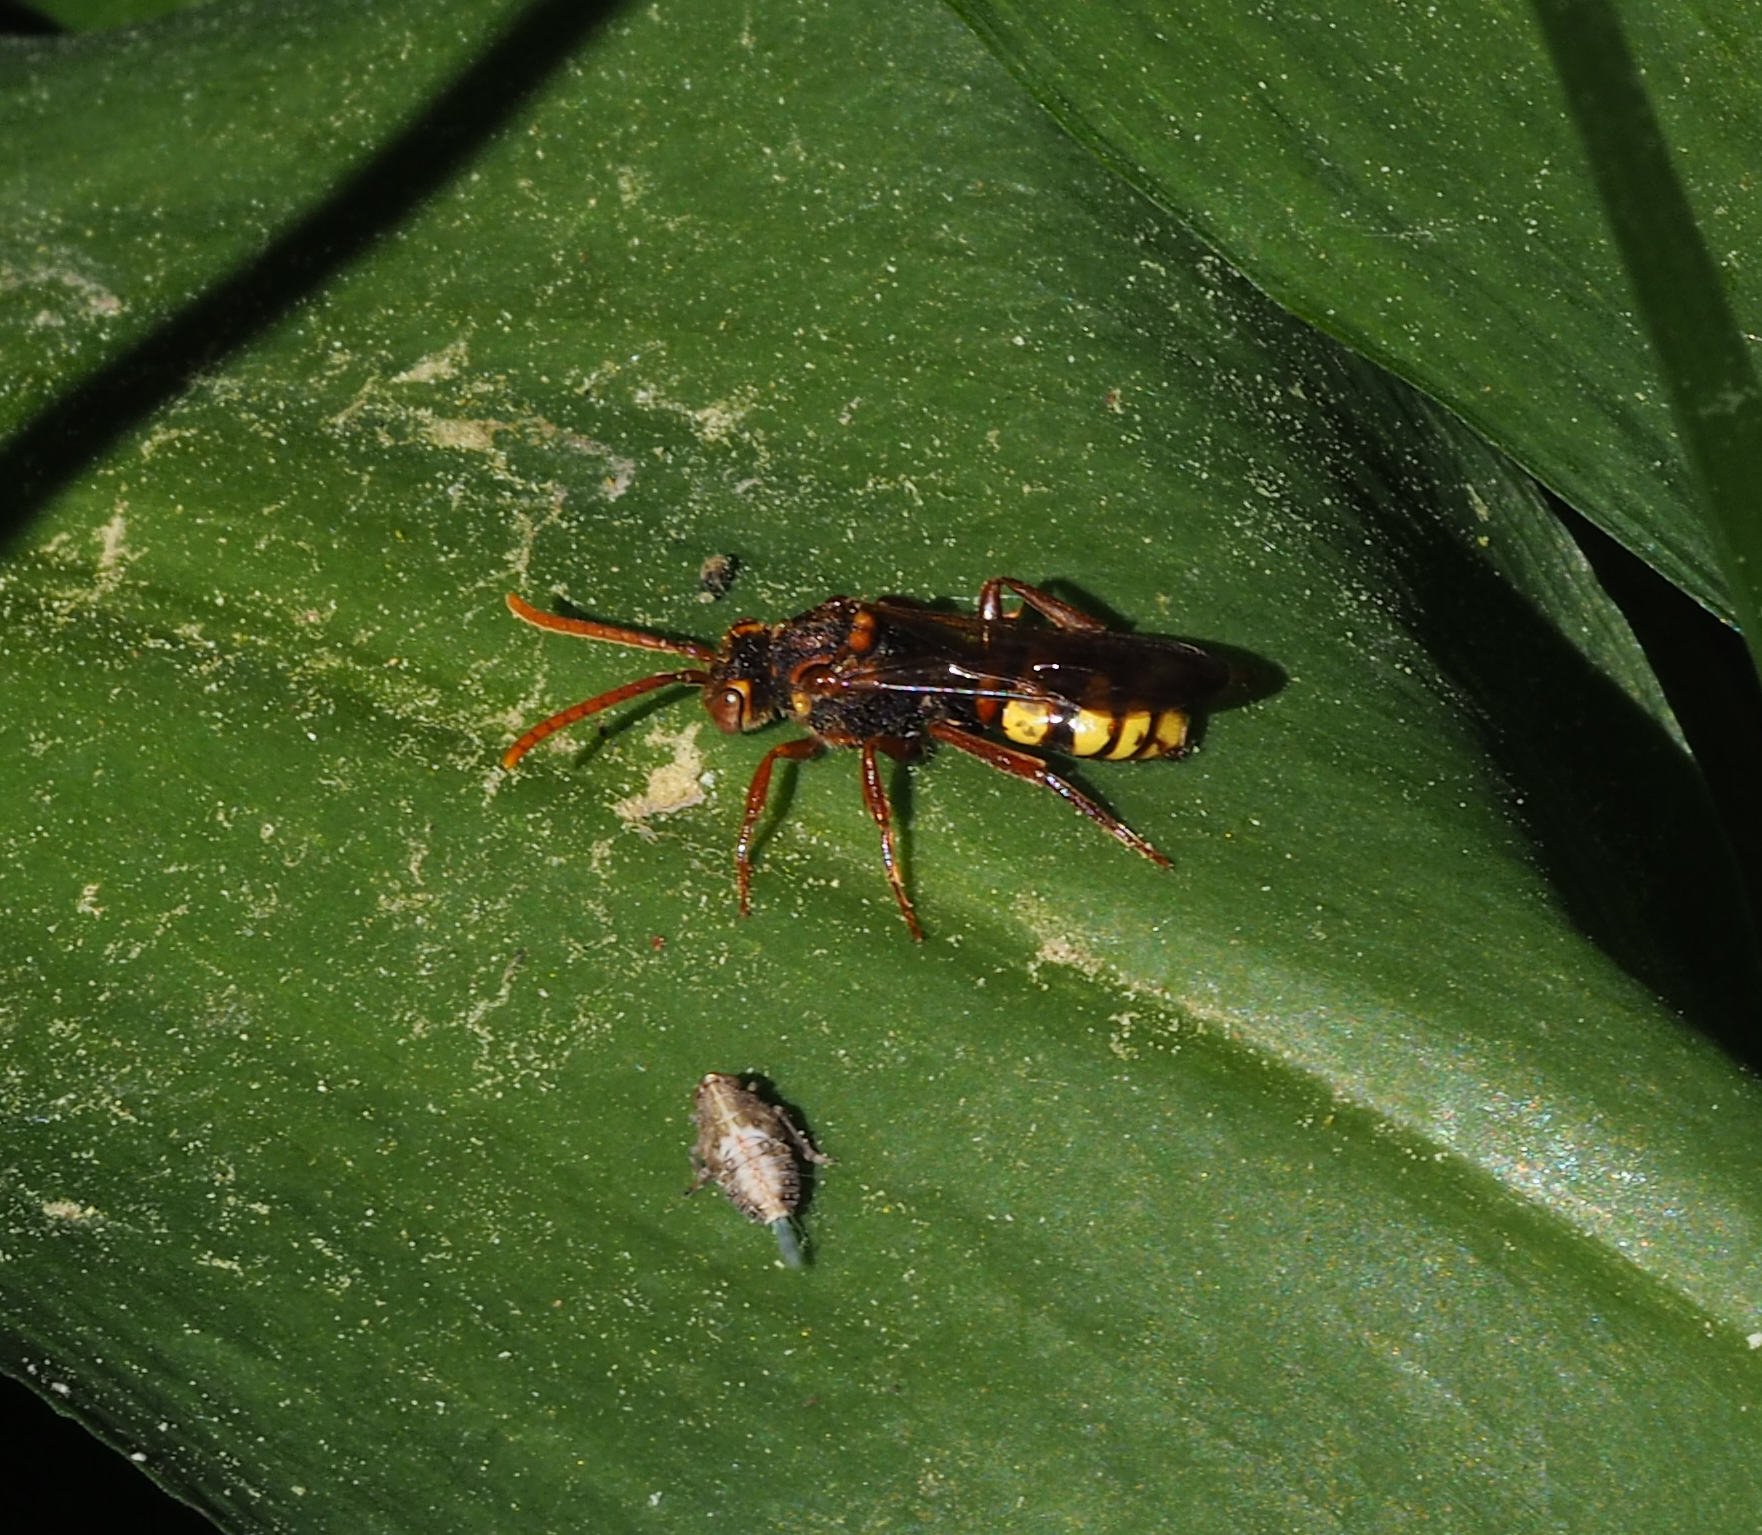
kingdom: Animalia
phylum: Arthropoda
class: Insecta
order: Hymenoptera
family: Apidae
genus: Nomada
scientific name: Nomada
